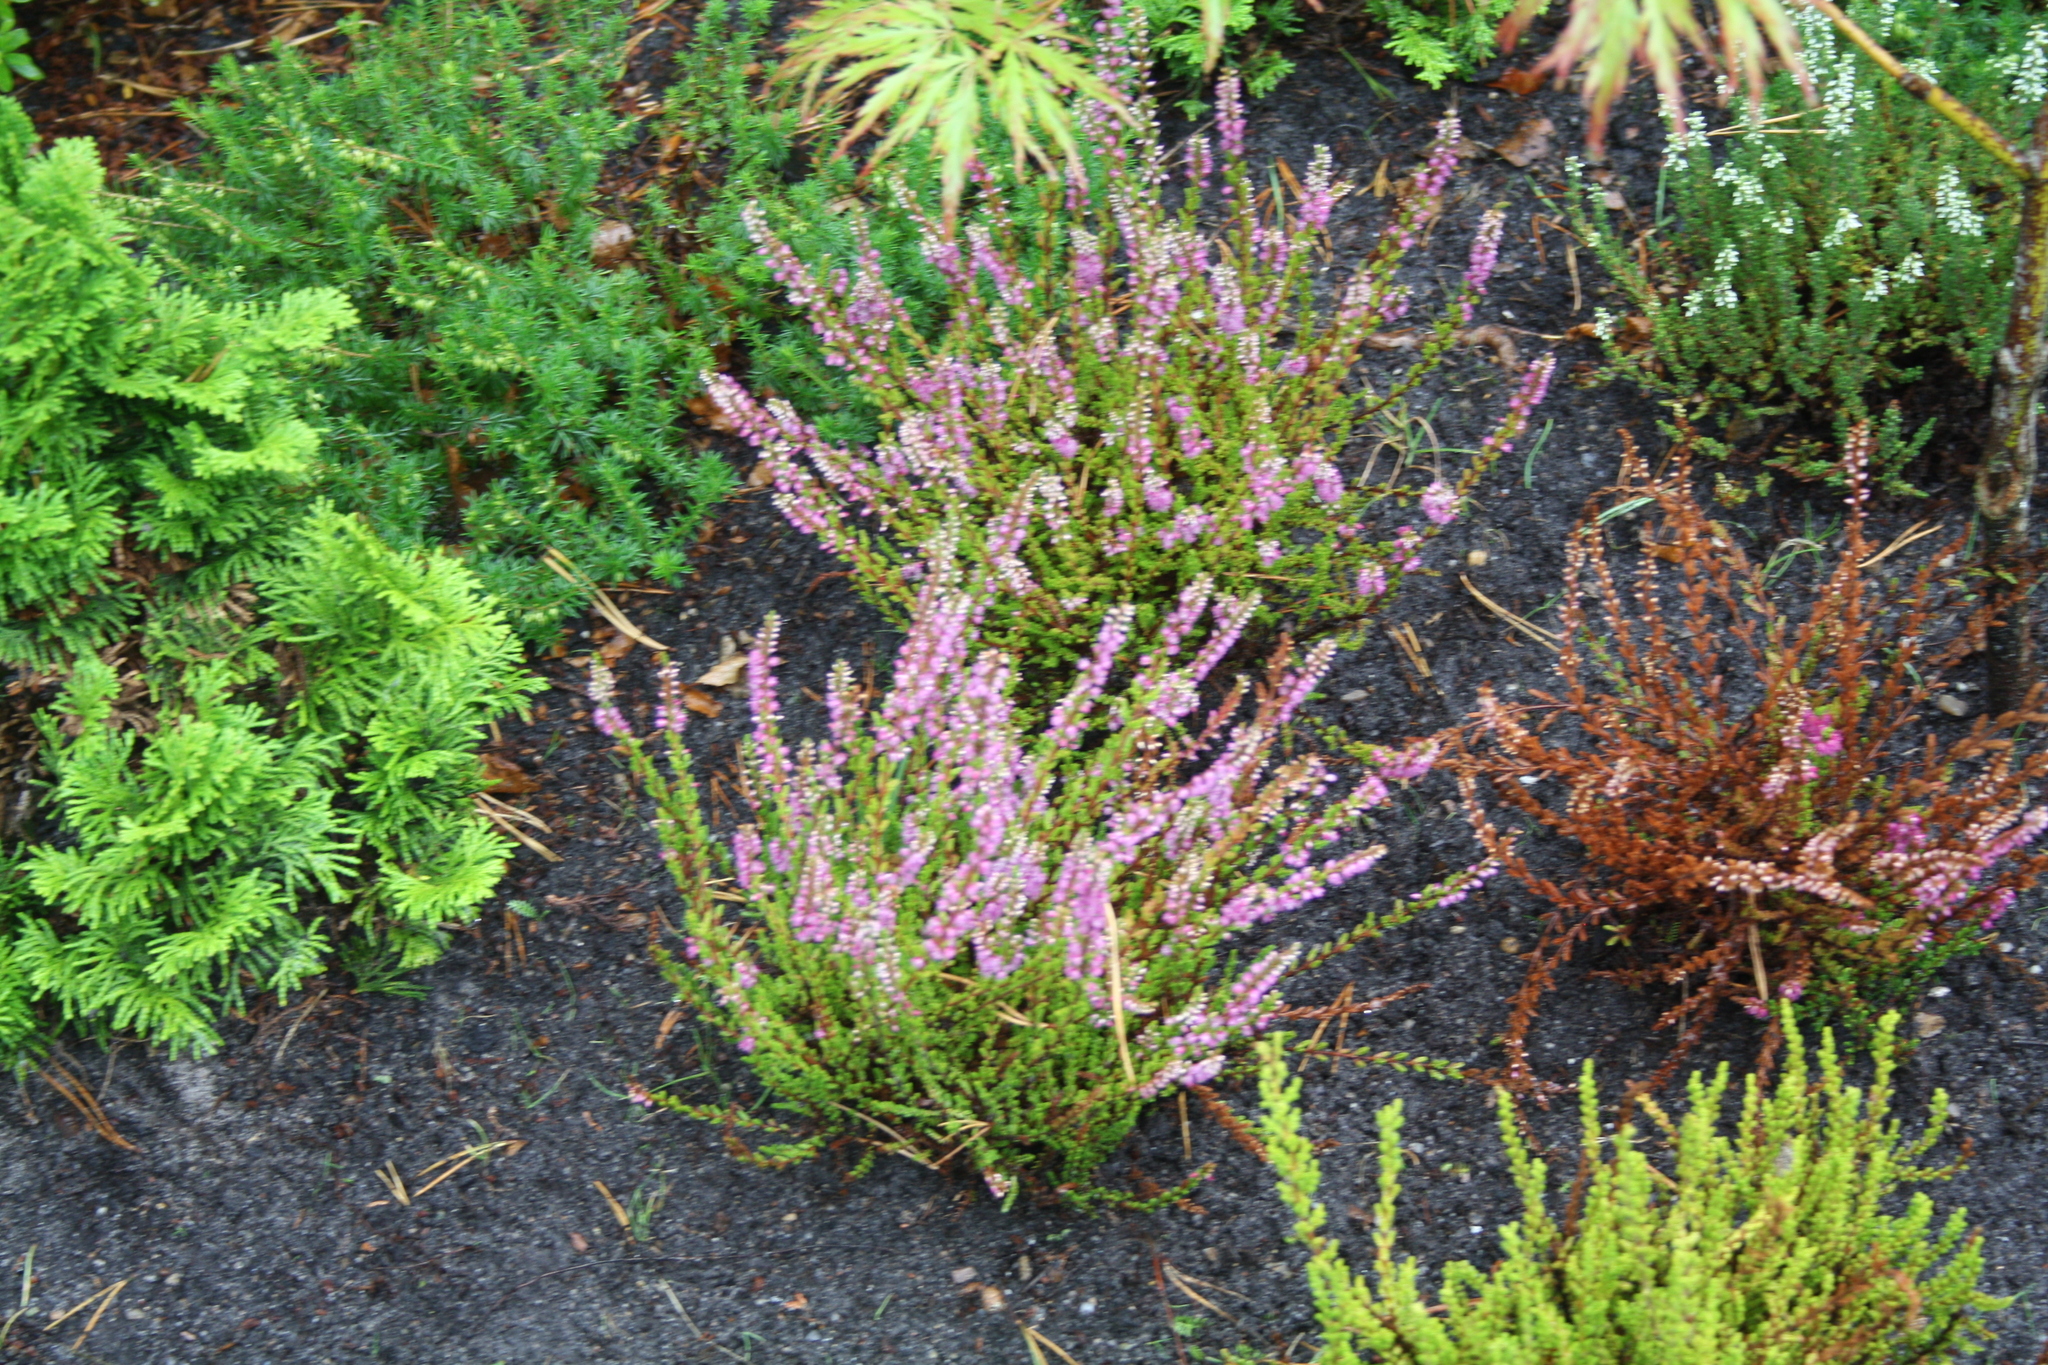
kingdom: Plantae
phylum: Tracheophyta
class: Magnoliopsida
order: Ericales
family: Ericaceae
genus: Calluna
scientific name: Calluna vulgaris
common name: Heather
